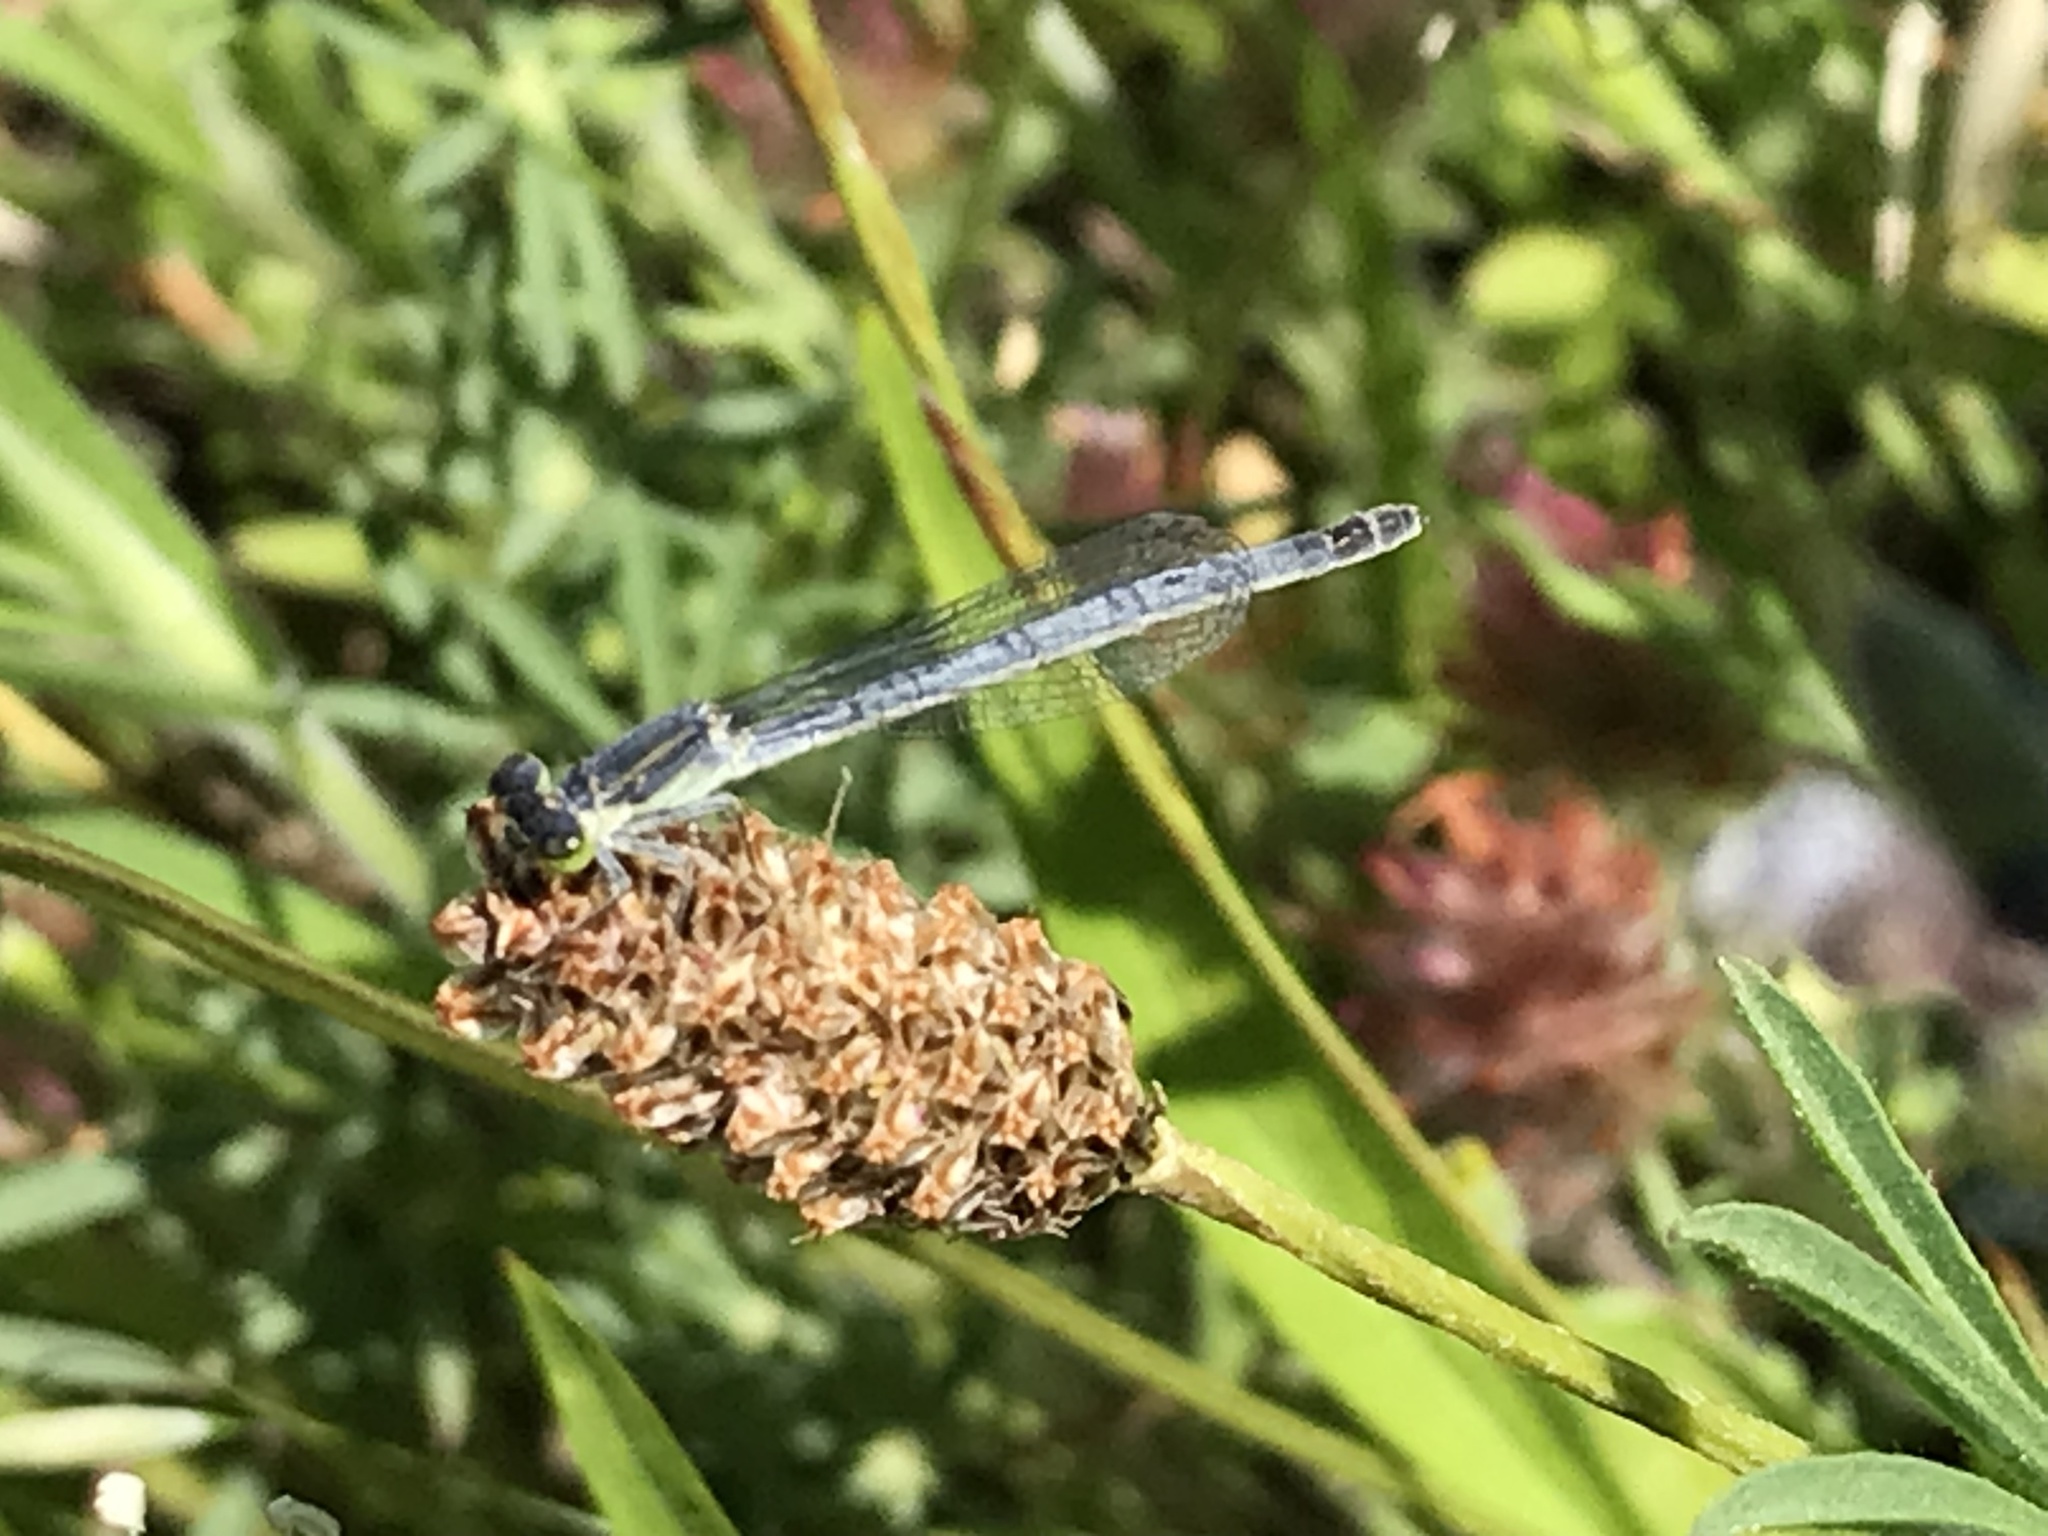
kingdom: Animalia
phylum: Arthropoda
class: Insecta
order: Odonata
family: Coenagrionidae
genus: Ischnura
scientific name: Ischnura perparva
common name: Western forktail
